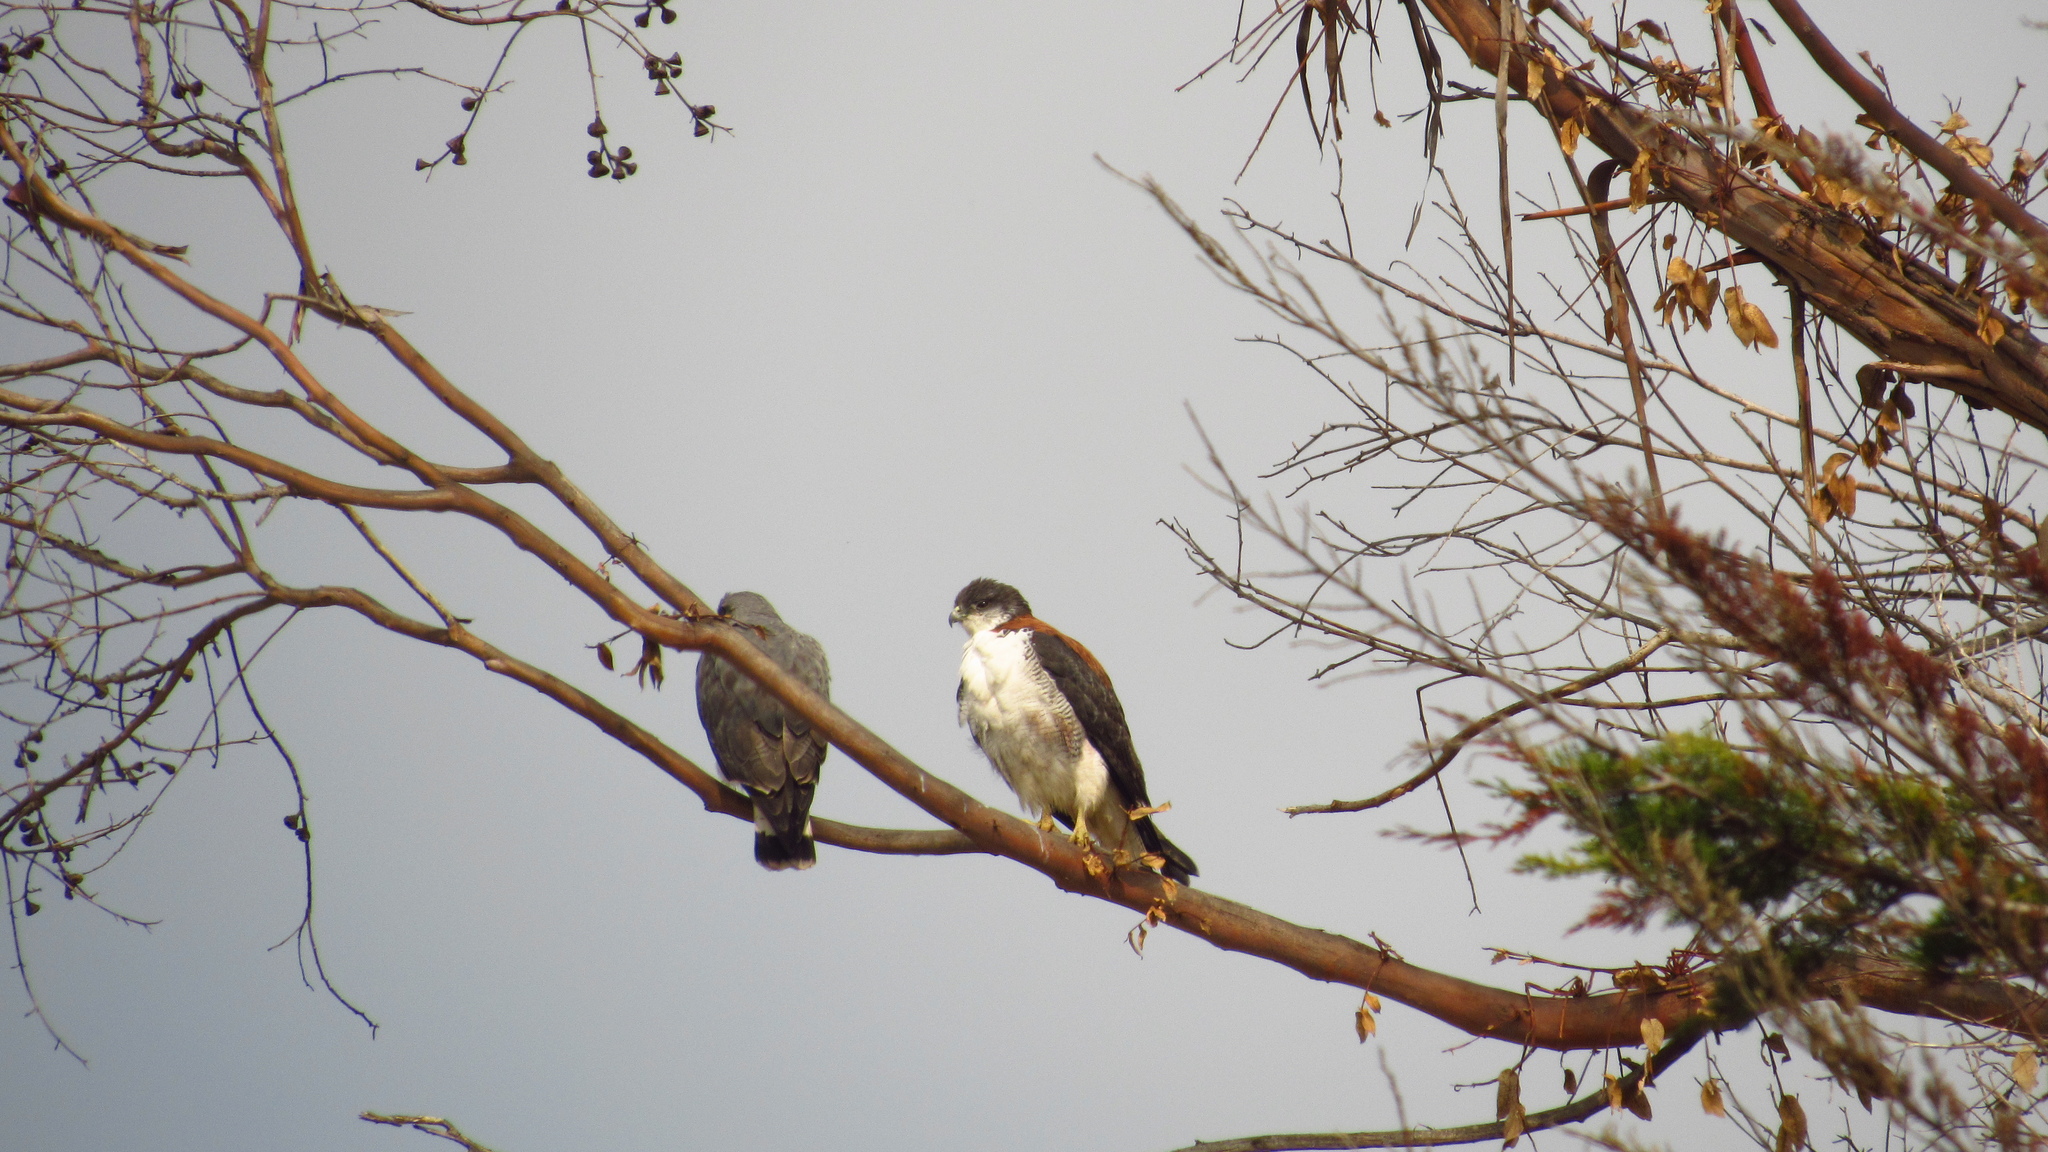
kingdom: Animalia
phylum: Chordata
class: Aves
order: Accipitriformes
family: Accipitridae
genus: Buteo
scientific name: Buteo polyosoma
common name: Variable hawk
